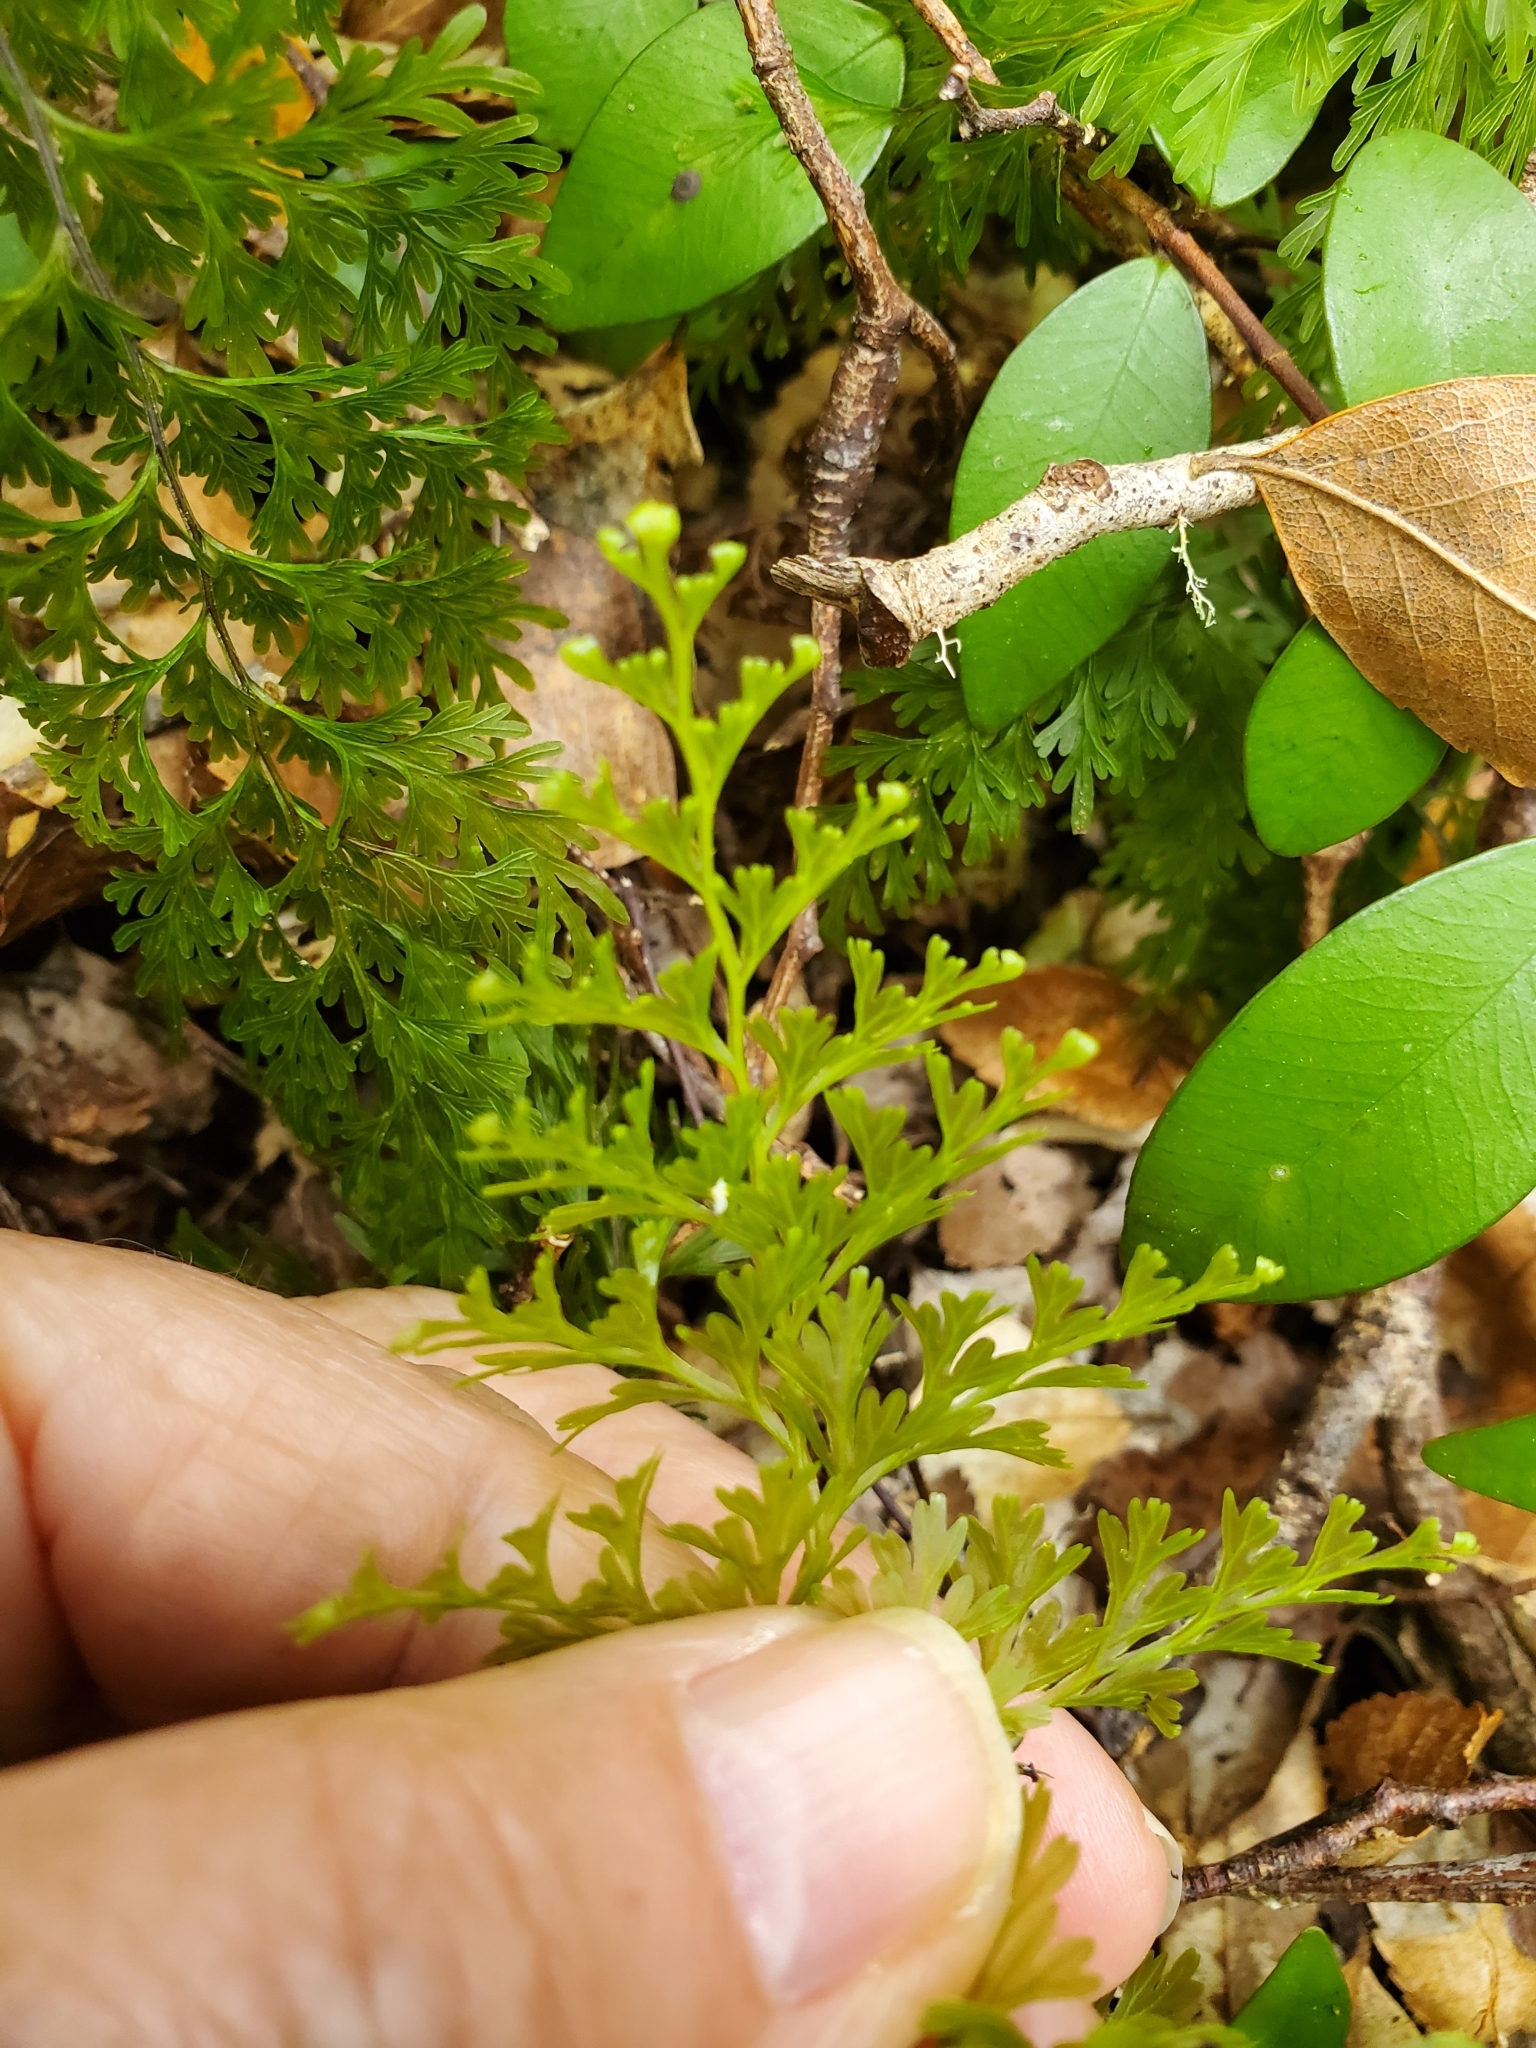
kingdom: Plantae
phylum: Tracheophyta
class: Polypodiopsida
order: Hymenophyllales
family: Hymenophyllaceae
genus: Hymenophyllum
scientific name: Hymenophyllum demissum
